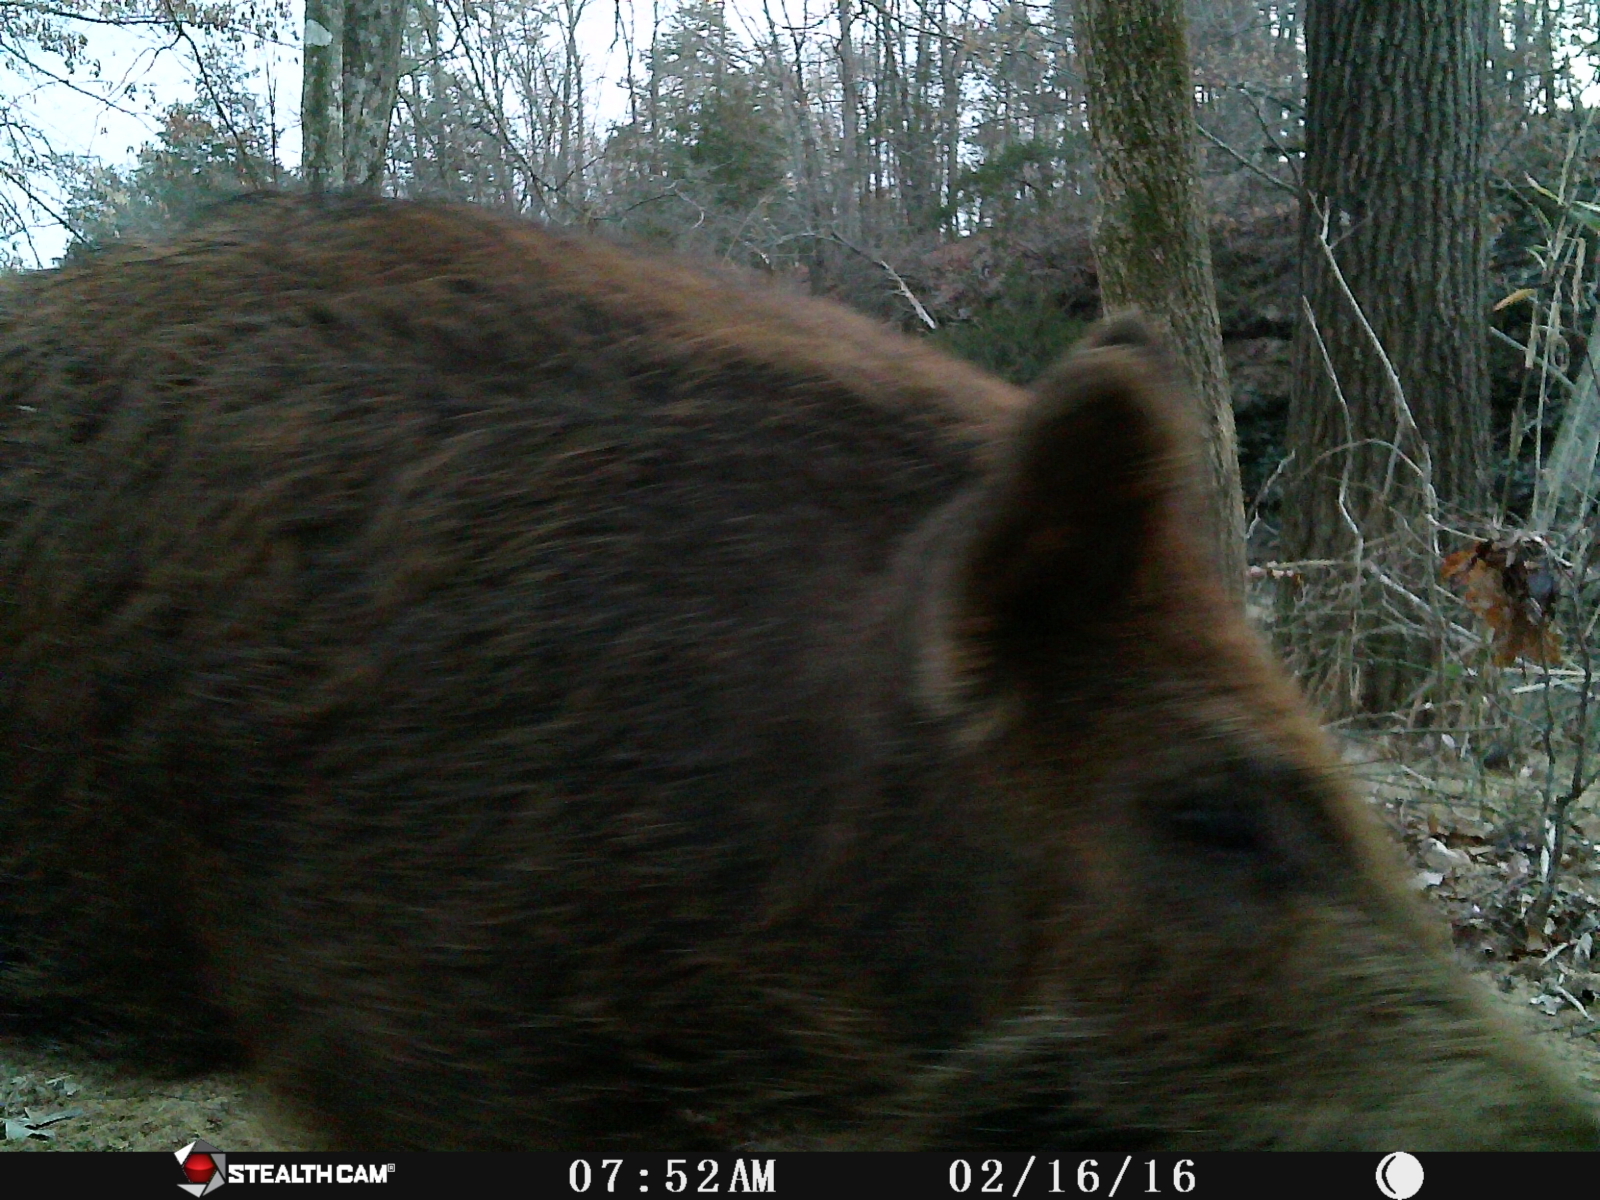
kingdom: Animalia
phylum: Chordata
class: Mammalia
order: Artiodactyla
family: Suidae
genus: Sus
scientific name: Sus scrofa
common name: Wild boar
